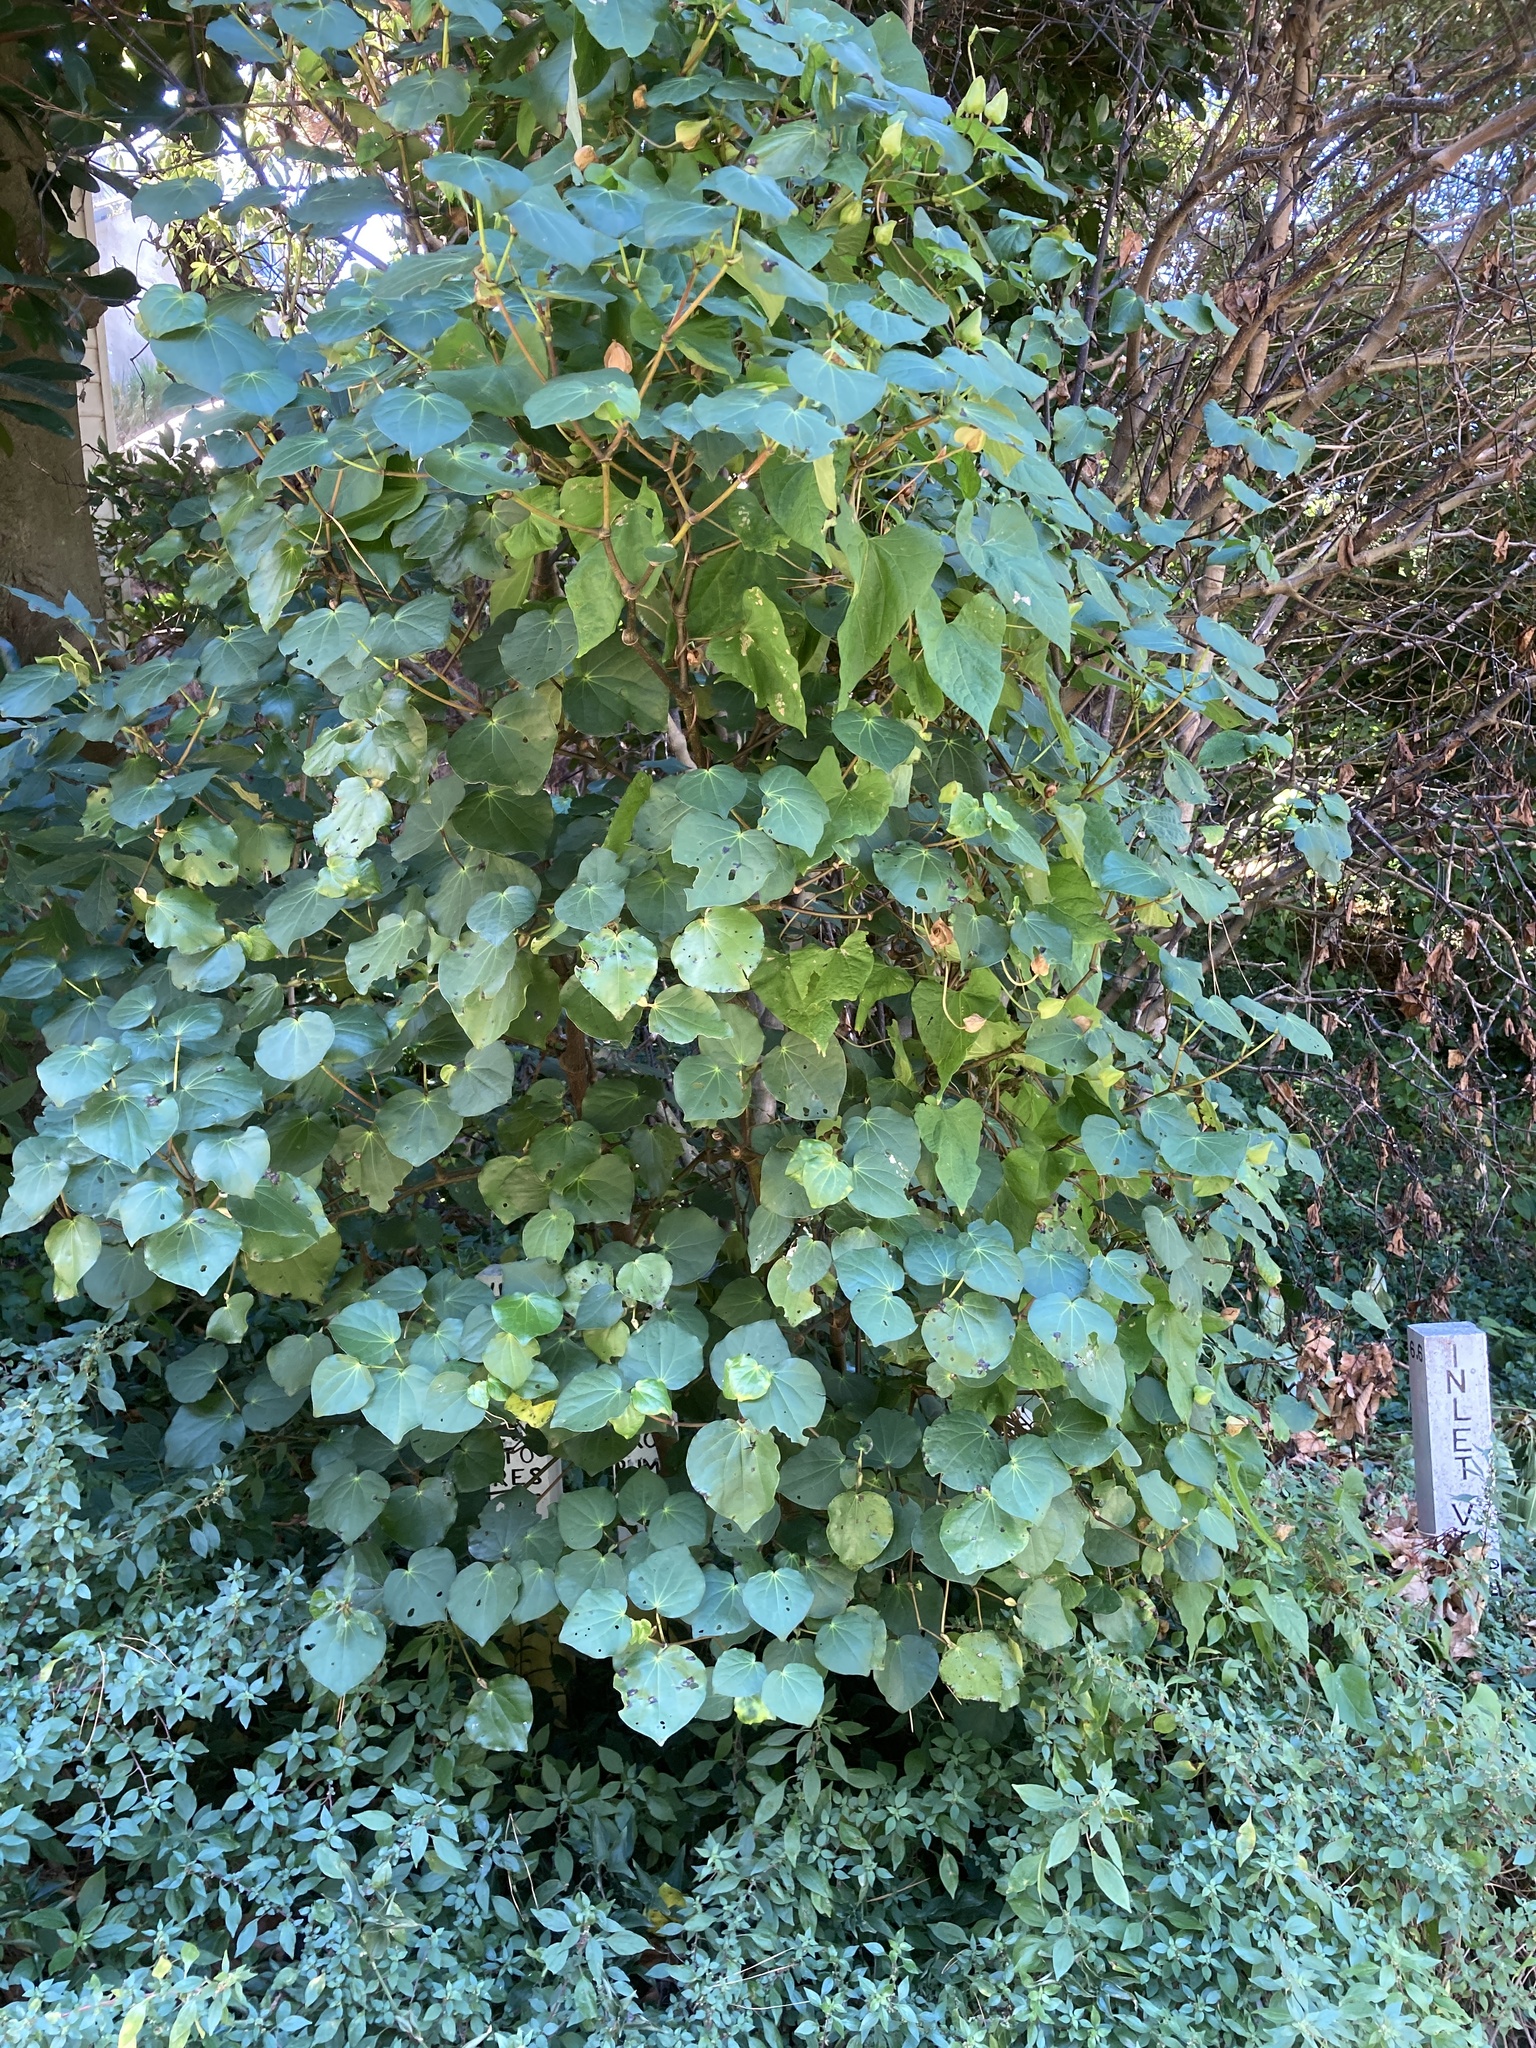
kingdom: Plantae
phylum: Tracheophyta
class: Magnoliopsida
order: Piperales
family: Piperaceae
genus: Macropiper
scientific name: Macropiper excelsum
